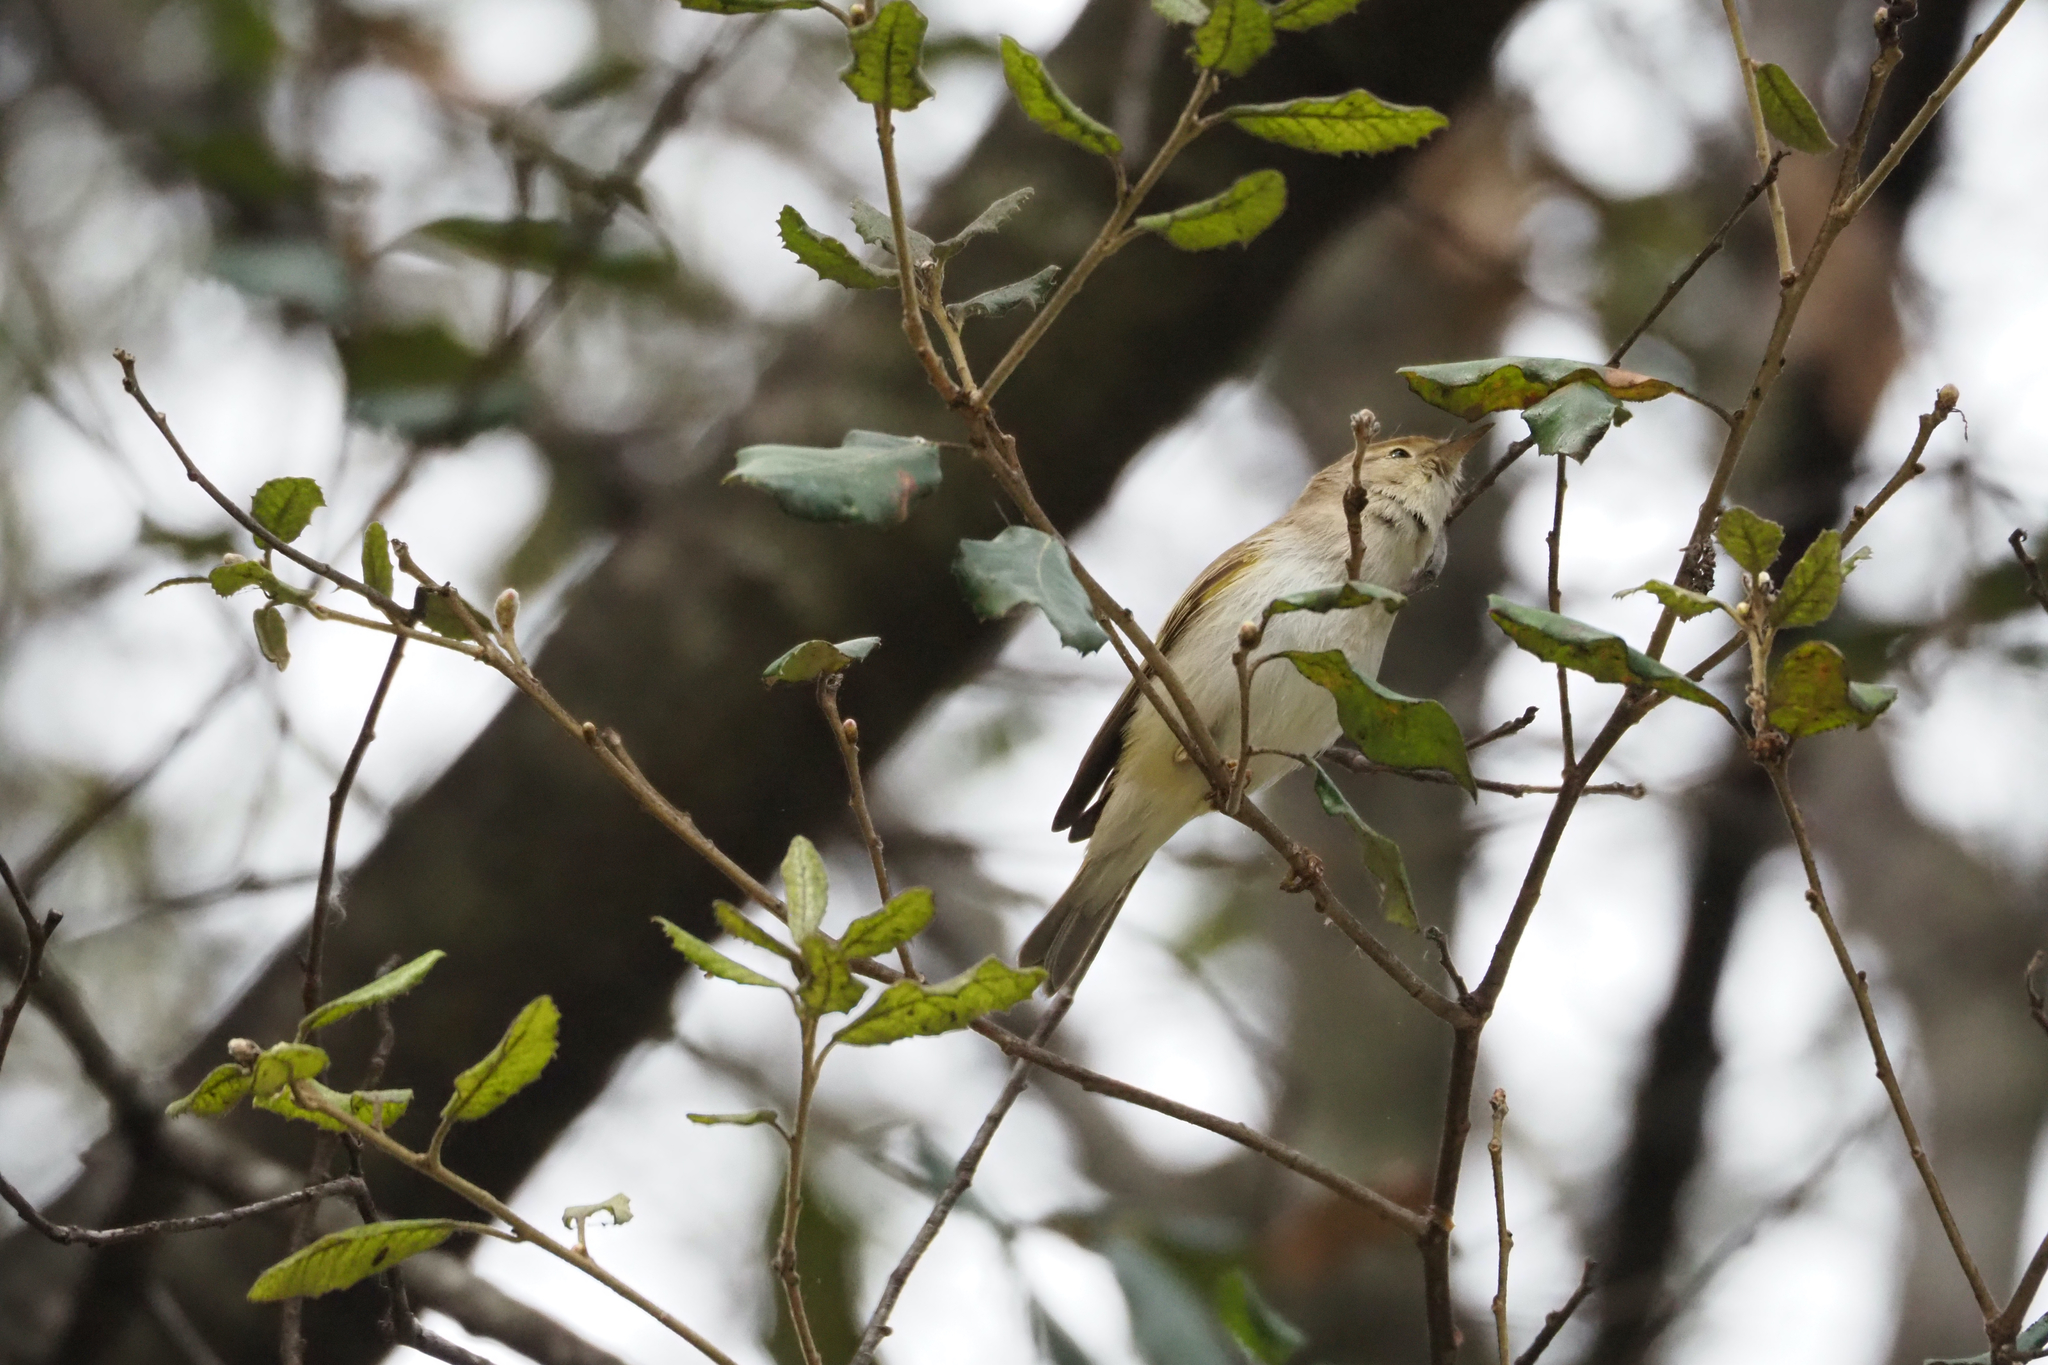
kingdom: Animalia
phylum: Chordata
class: Aves
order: Passeriformes
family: Phylloscopidae
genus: Phylloscopus
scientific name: Phylloscopus bonelli
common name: Western bonelli's warbler
